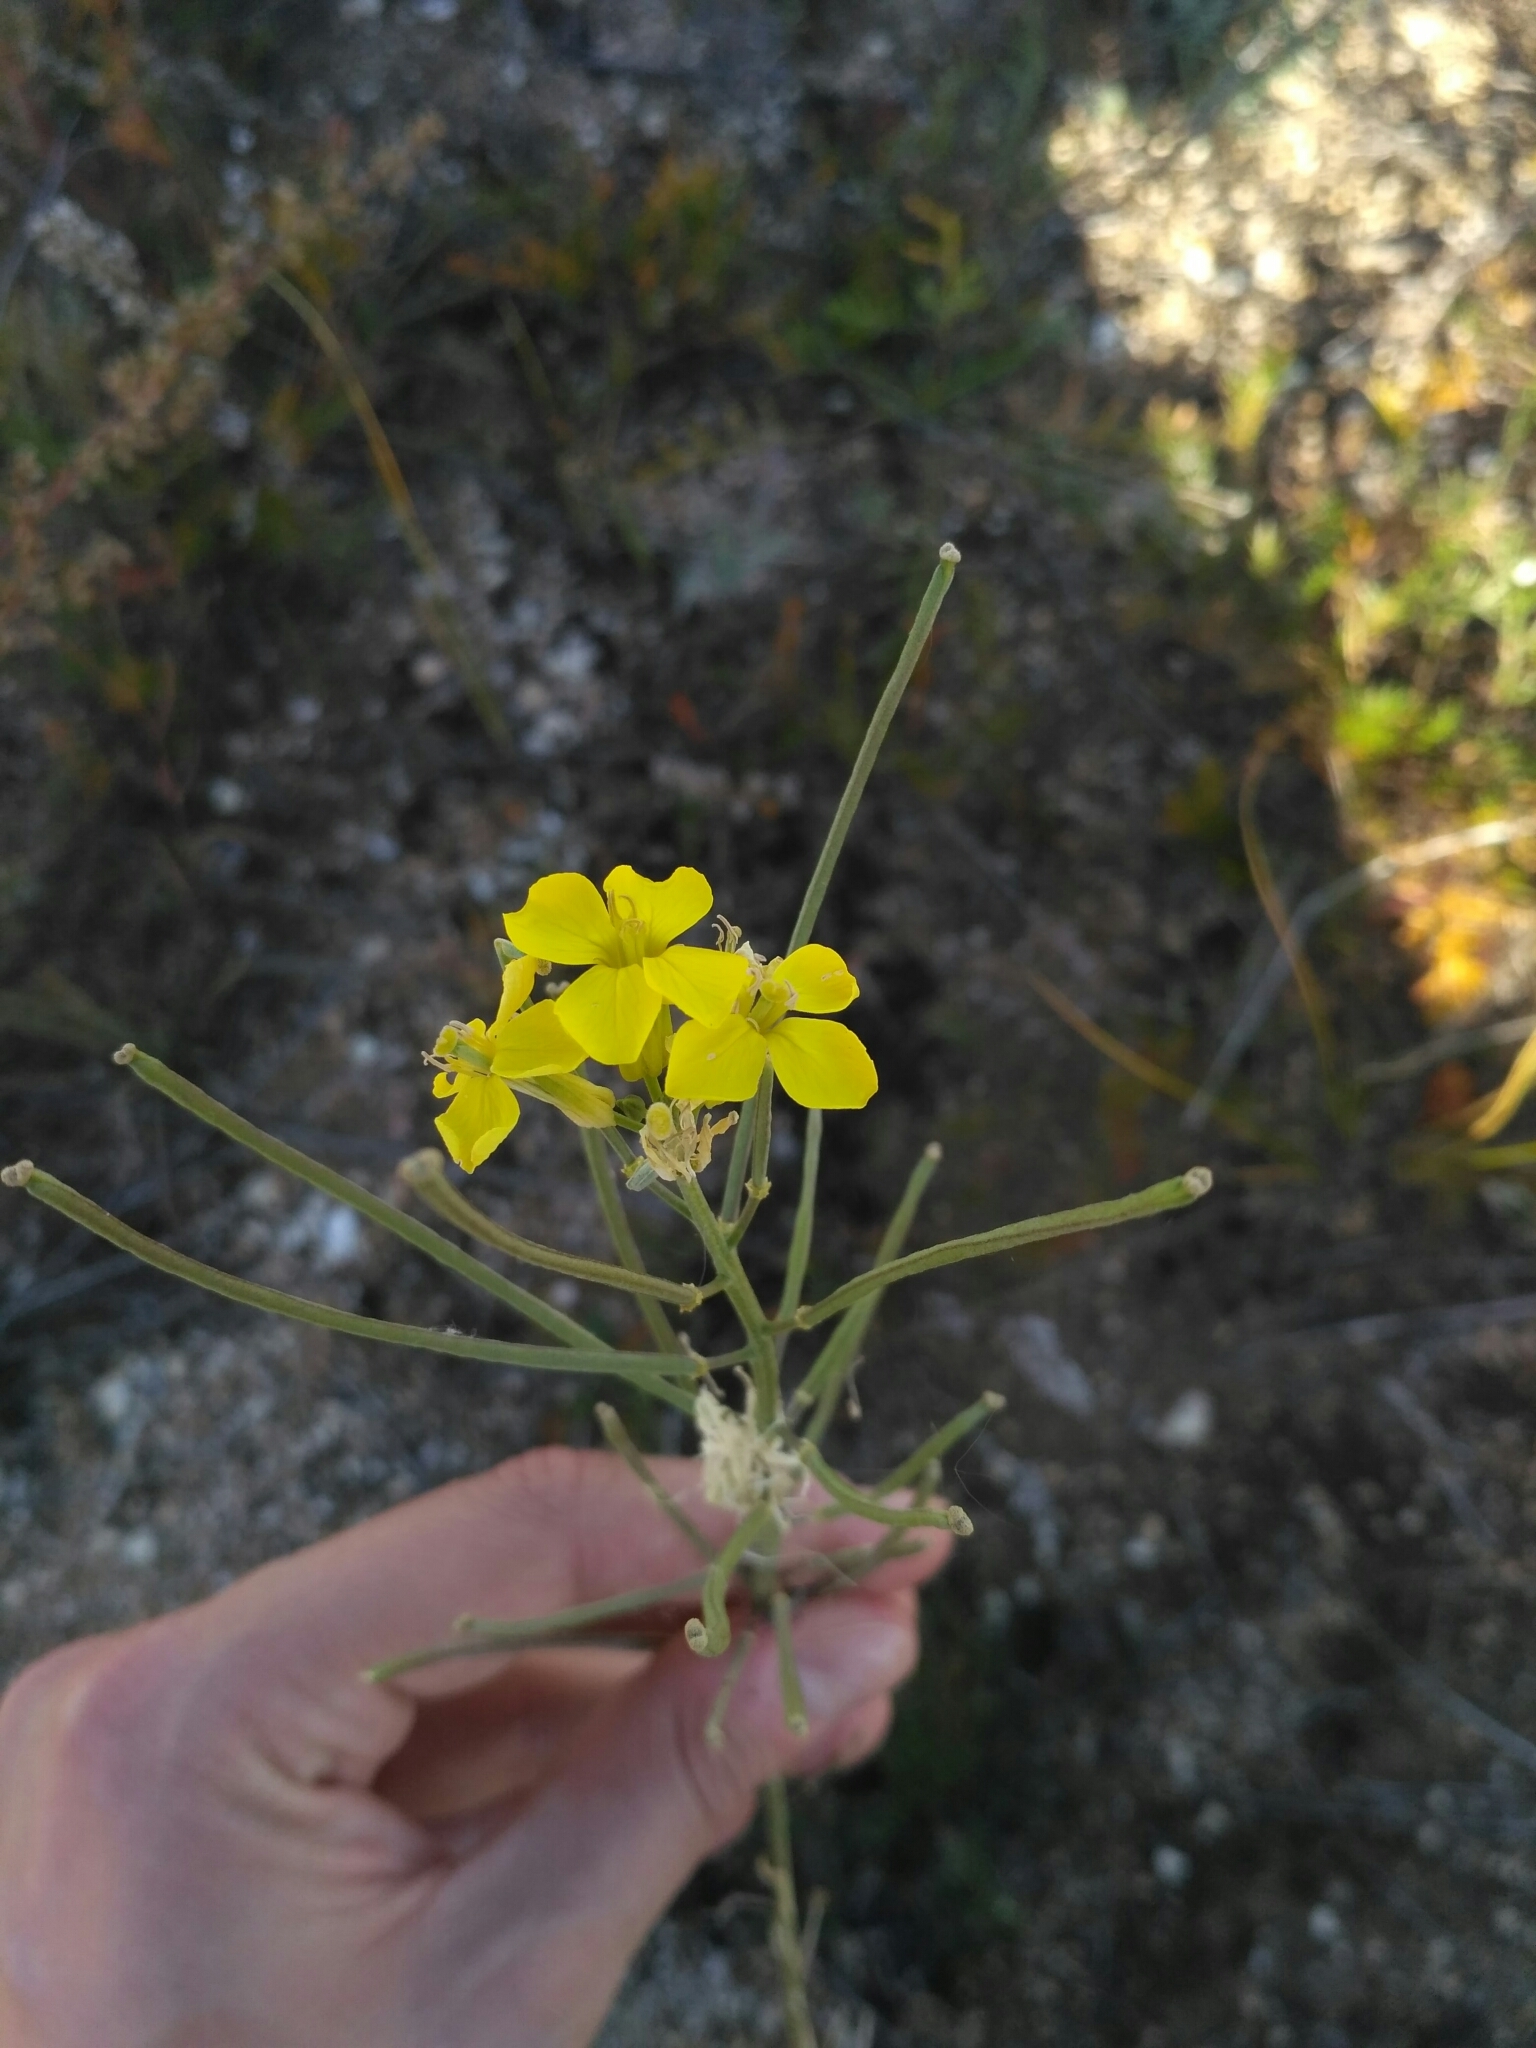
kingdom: Plantae
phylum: Tracheophyta
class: Magnoliopsida
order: Brassicales
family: Brassicaceae
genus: Erysimum
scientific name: Erysimum flavum
